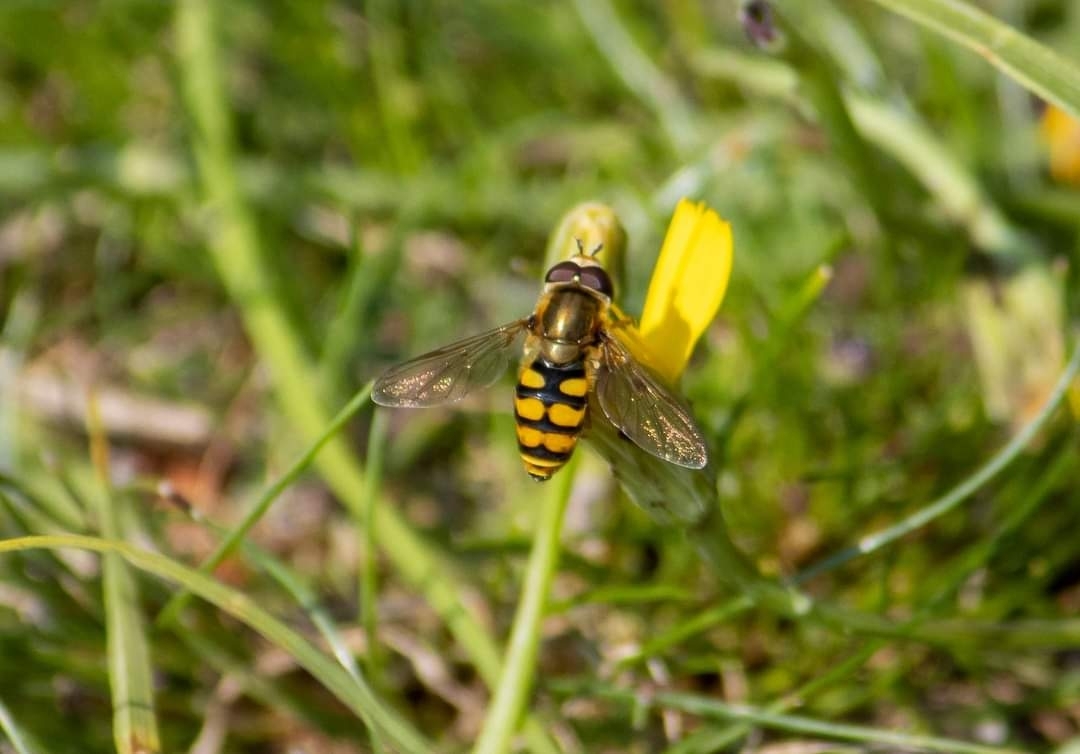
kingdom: Animalia
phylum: Arthropoda
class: Insecta
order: Diptera
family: Syrphidae
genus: Eupeodes
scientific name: Eupeodes corollae
